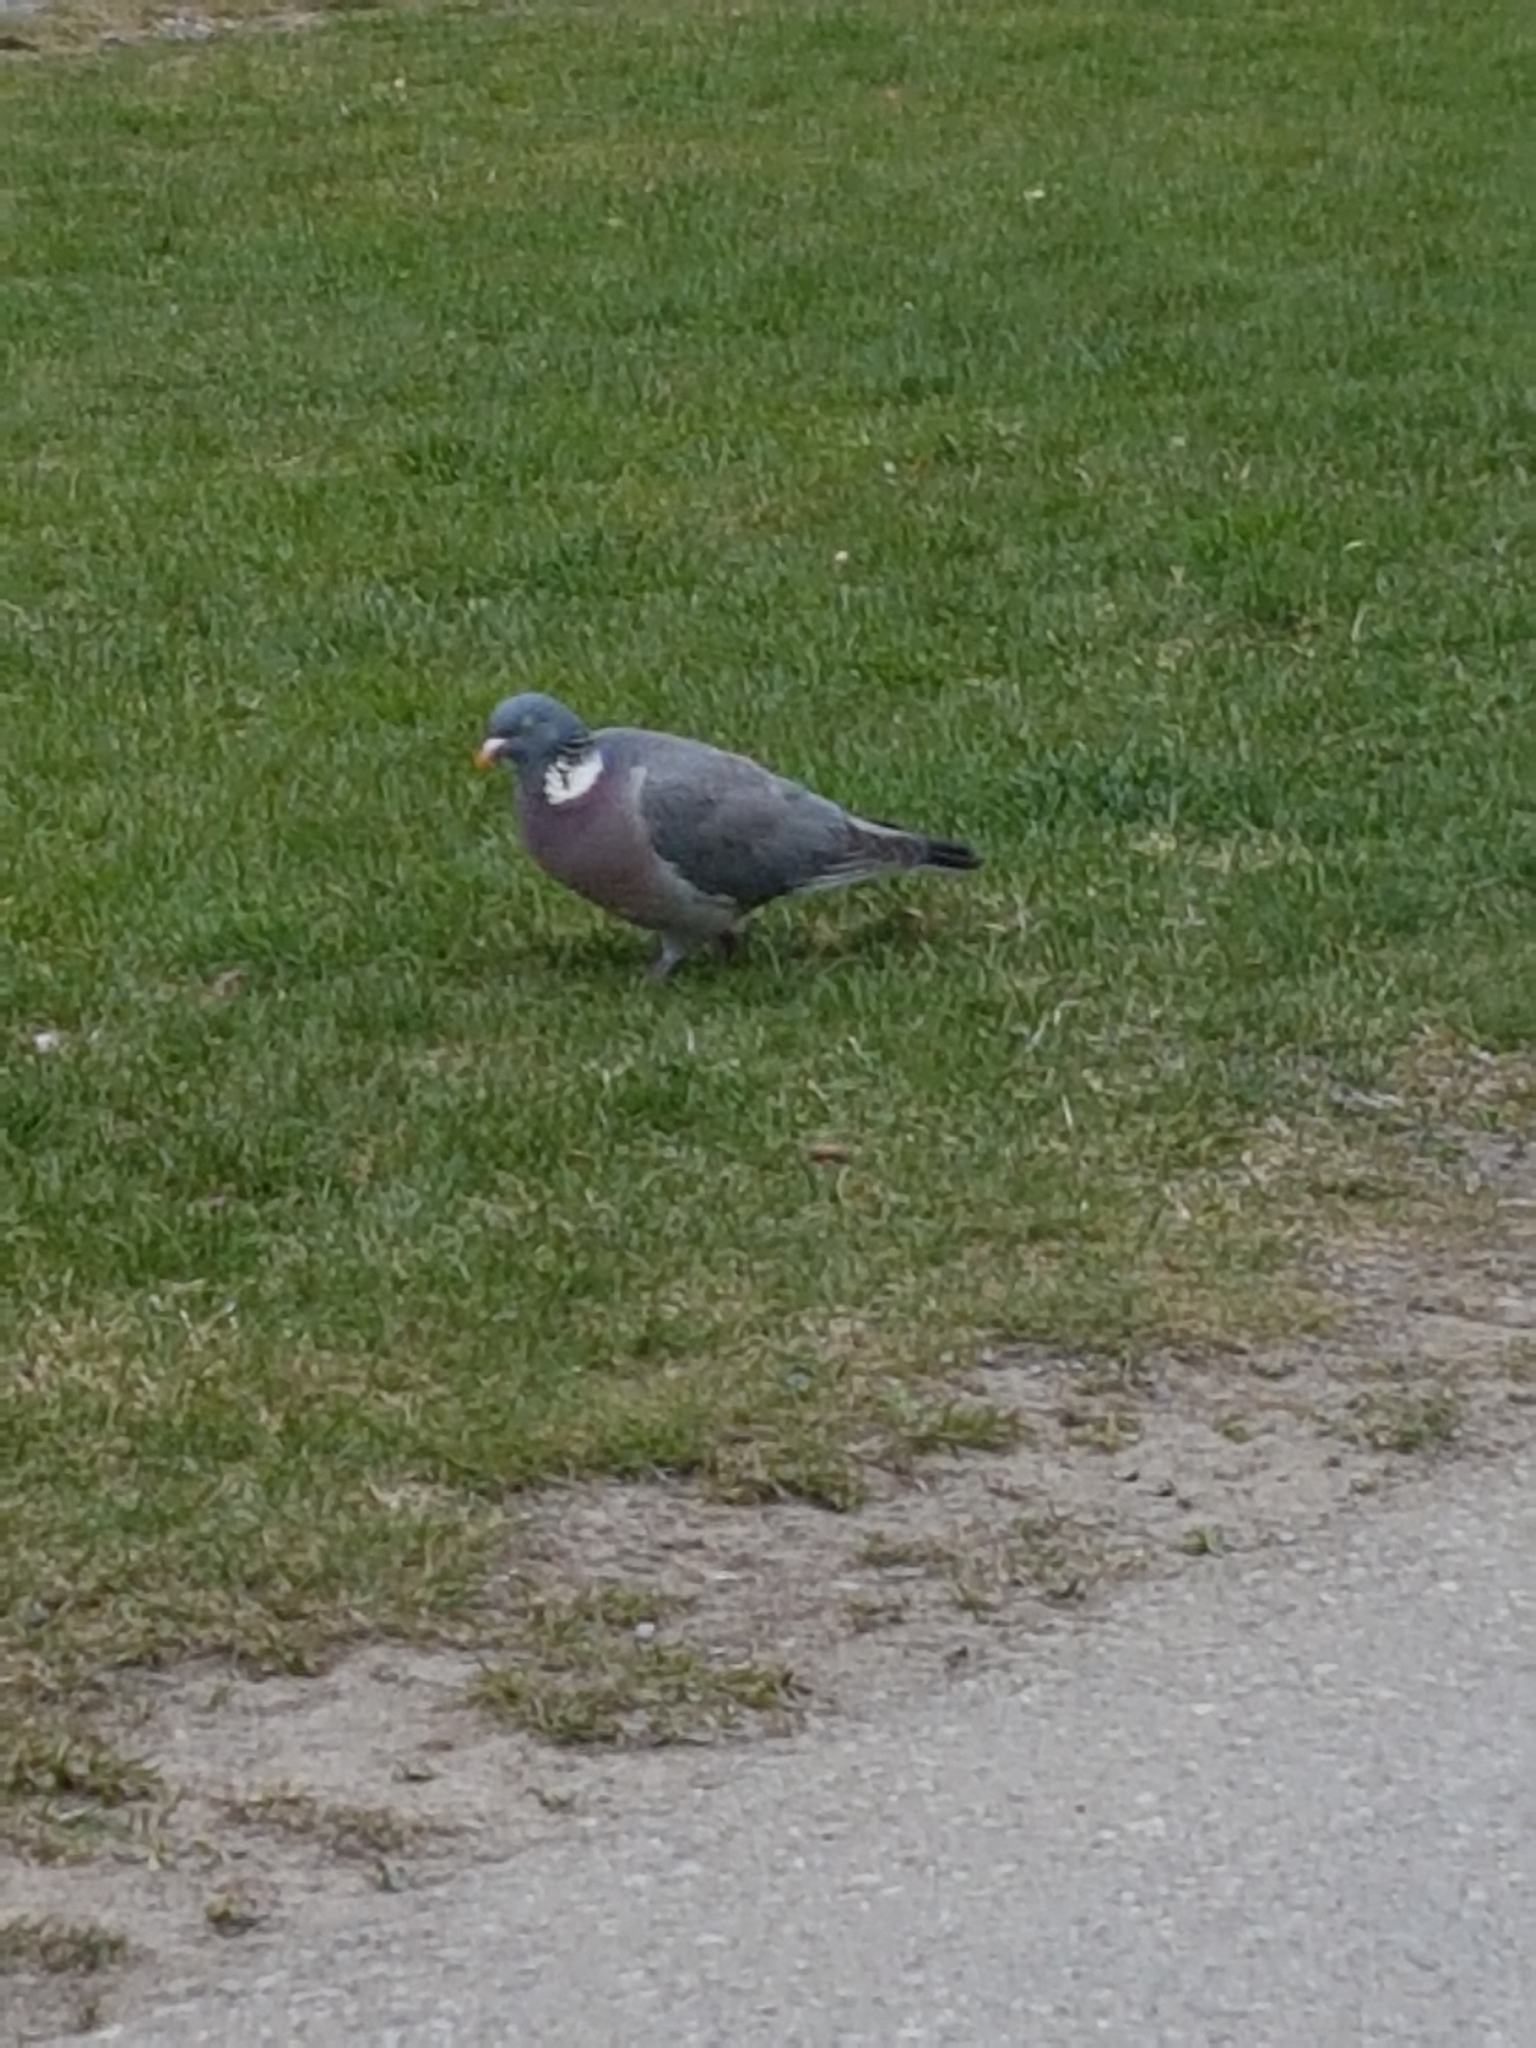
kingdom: Animalia
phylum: Chordata
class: Aves
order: Columbiformes
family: Columbidae
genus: Columba
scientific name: Columba palumbus
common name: Common wood pigeon
